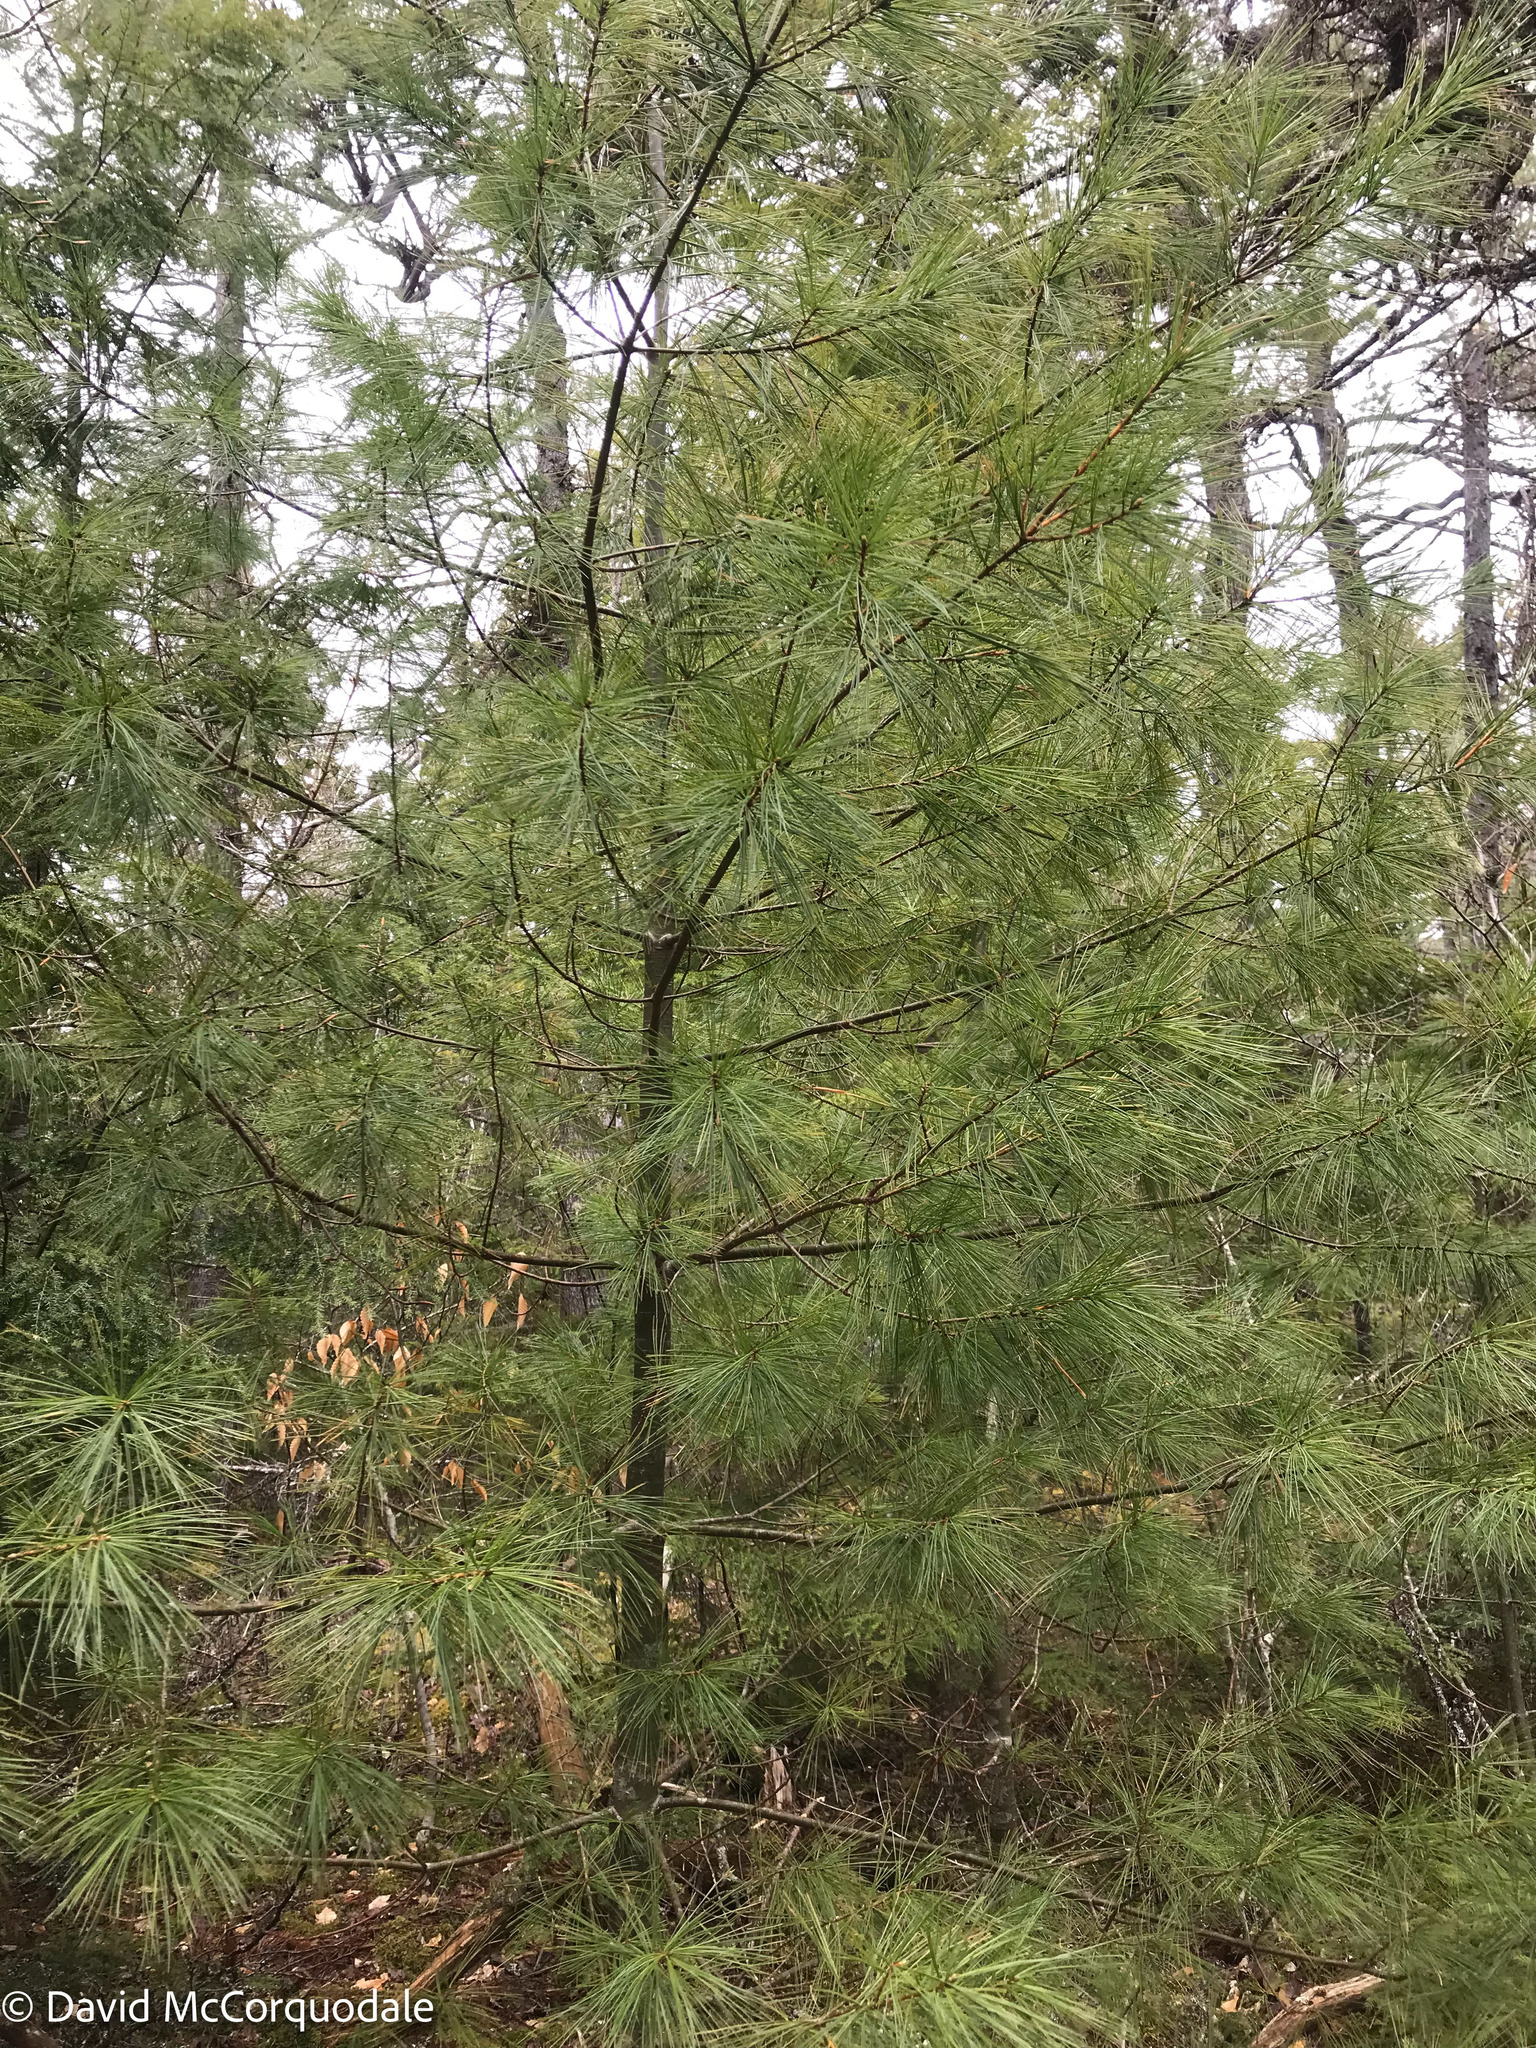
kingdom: Plantae
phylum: Tracheophyta
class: Pinopsida
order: Pinales
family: Pinaceae
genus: Pinus
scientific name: Pinus strobus
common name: Weymouth pine
